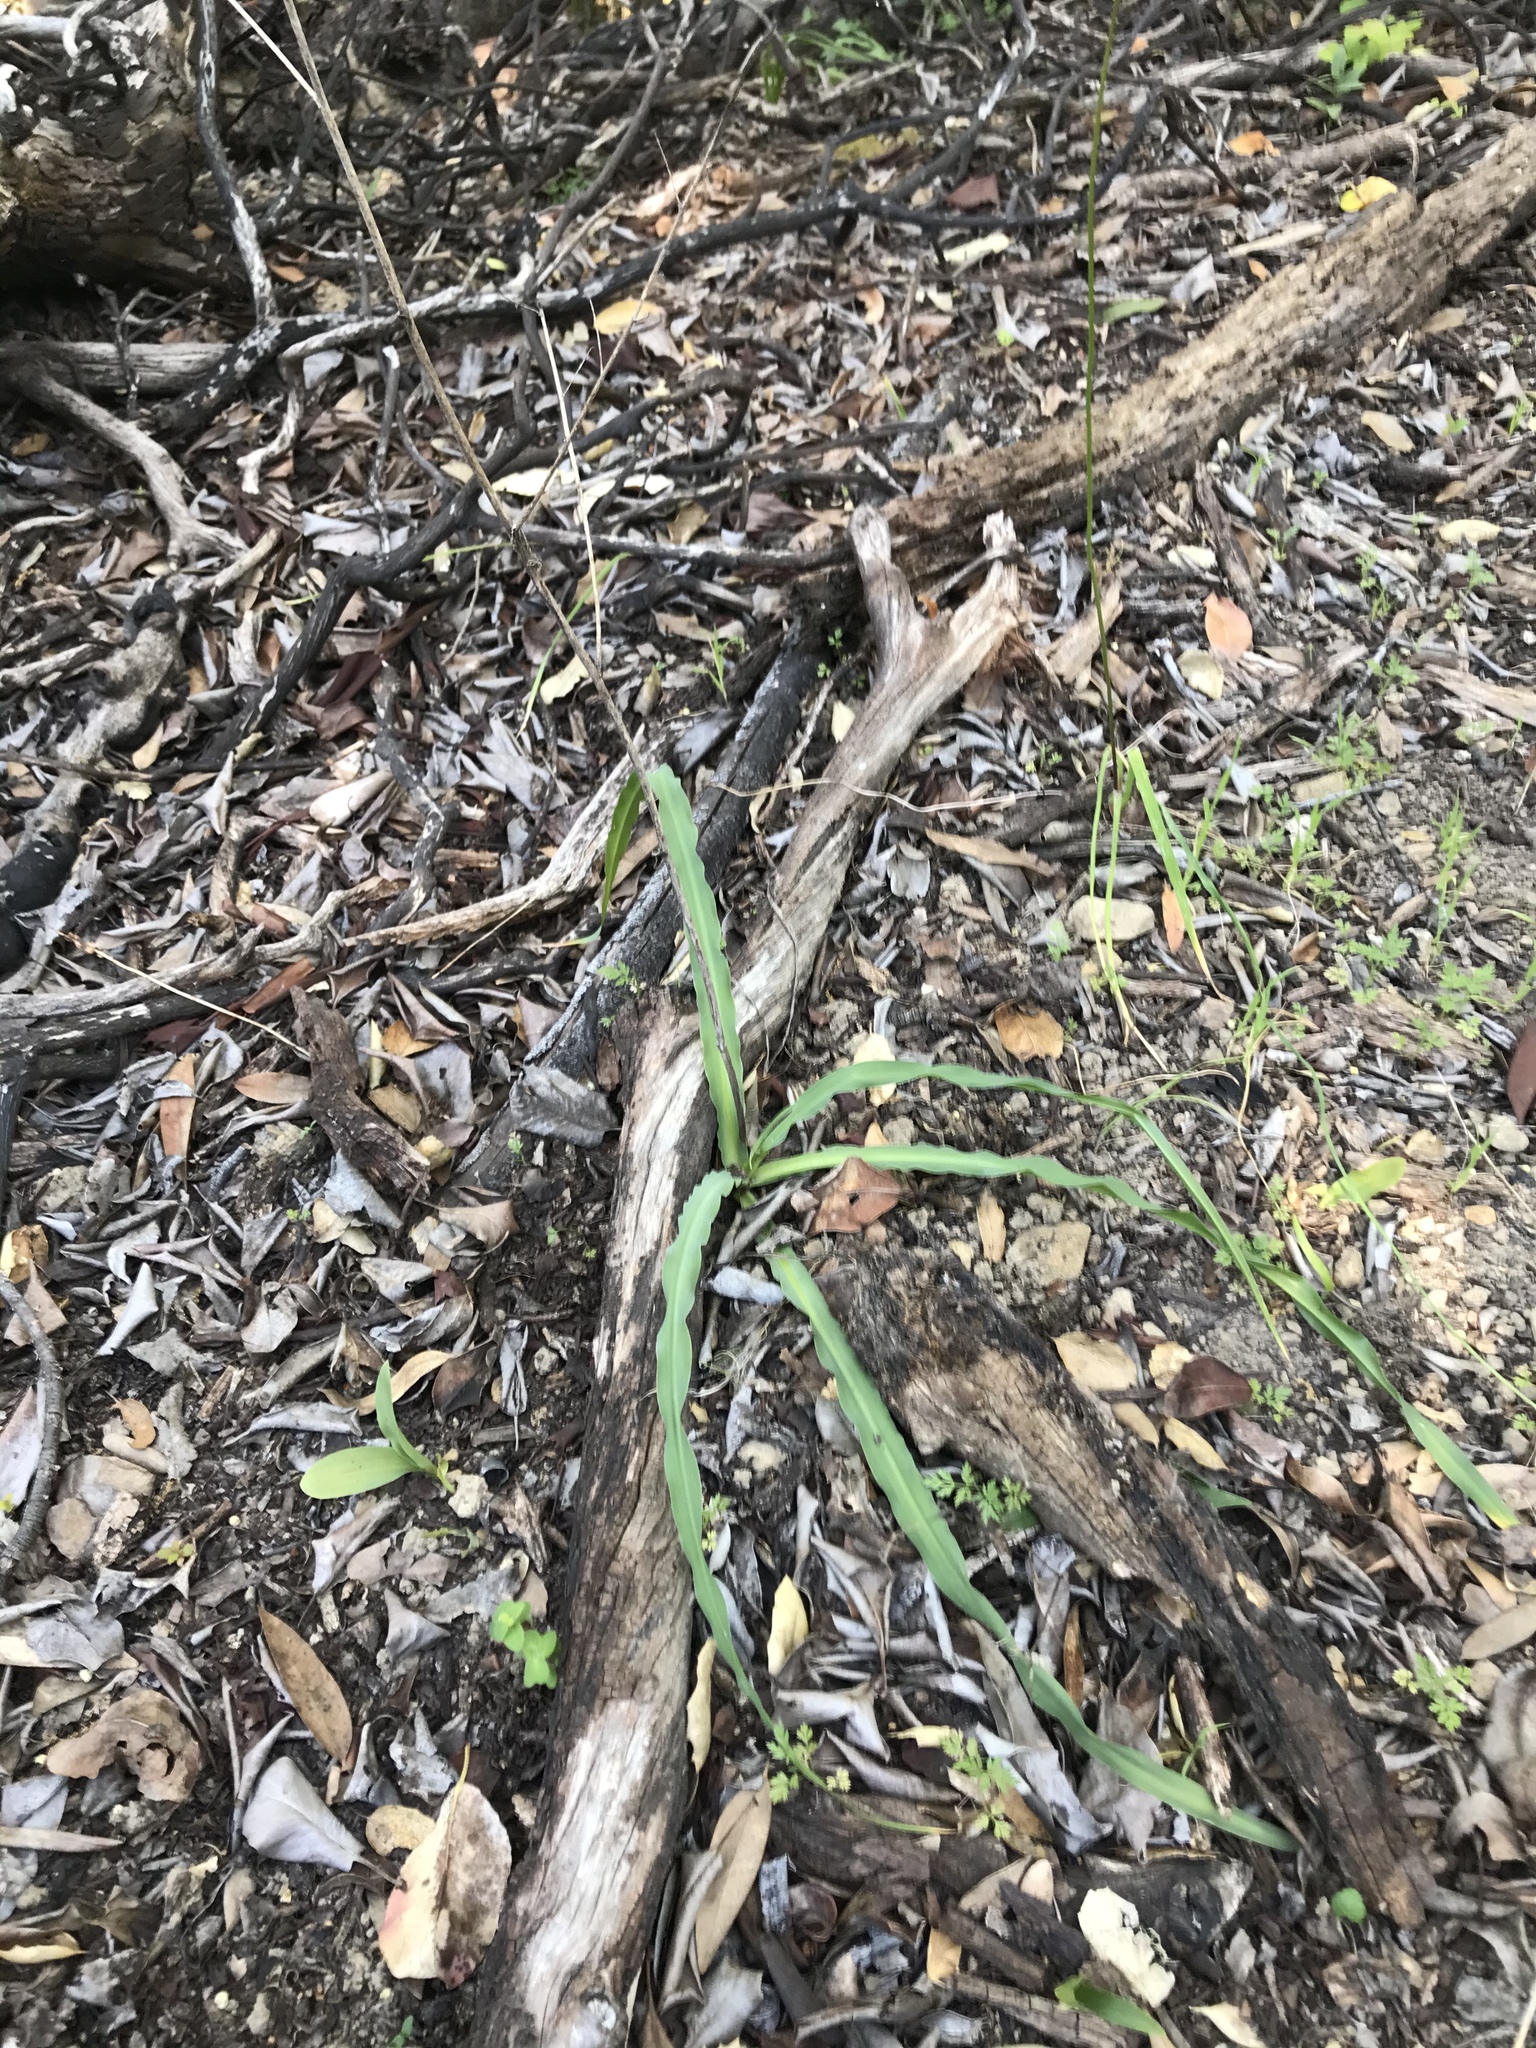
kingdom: Plantae
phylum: Tracheophyta
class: Liliopsida
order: Asparagales
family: Asparagaceae
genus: Chlorogalum
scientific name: Chlorogalum pomeridianum
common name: Amole
